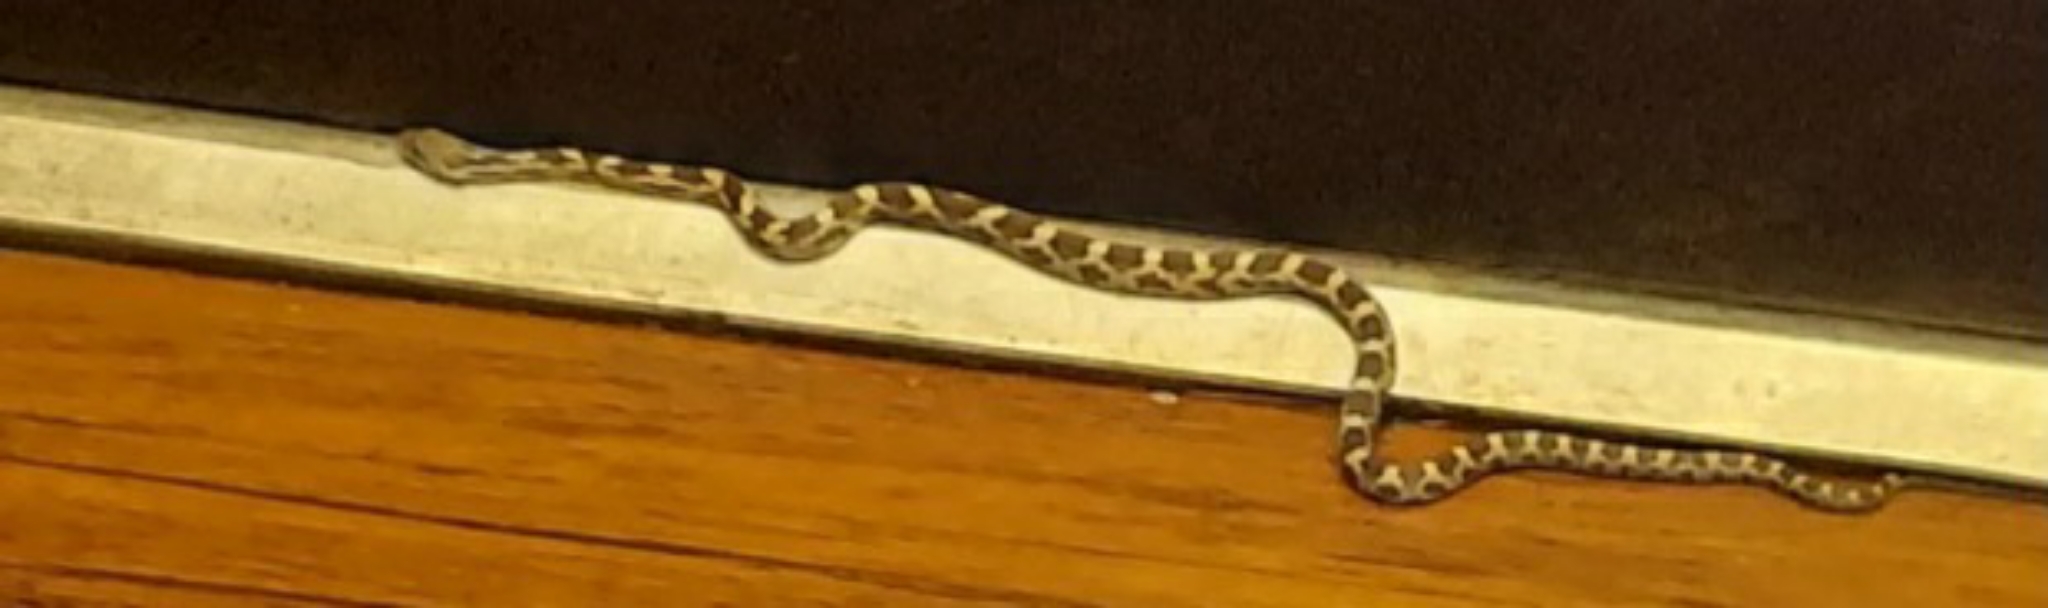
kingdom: Animalia
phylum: Chordata
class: Squamata
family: Colubridae
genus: Pantherophis
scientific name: Pantherophis spiloides
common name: Gray rat snake
